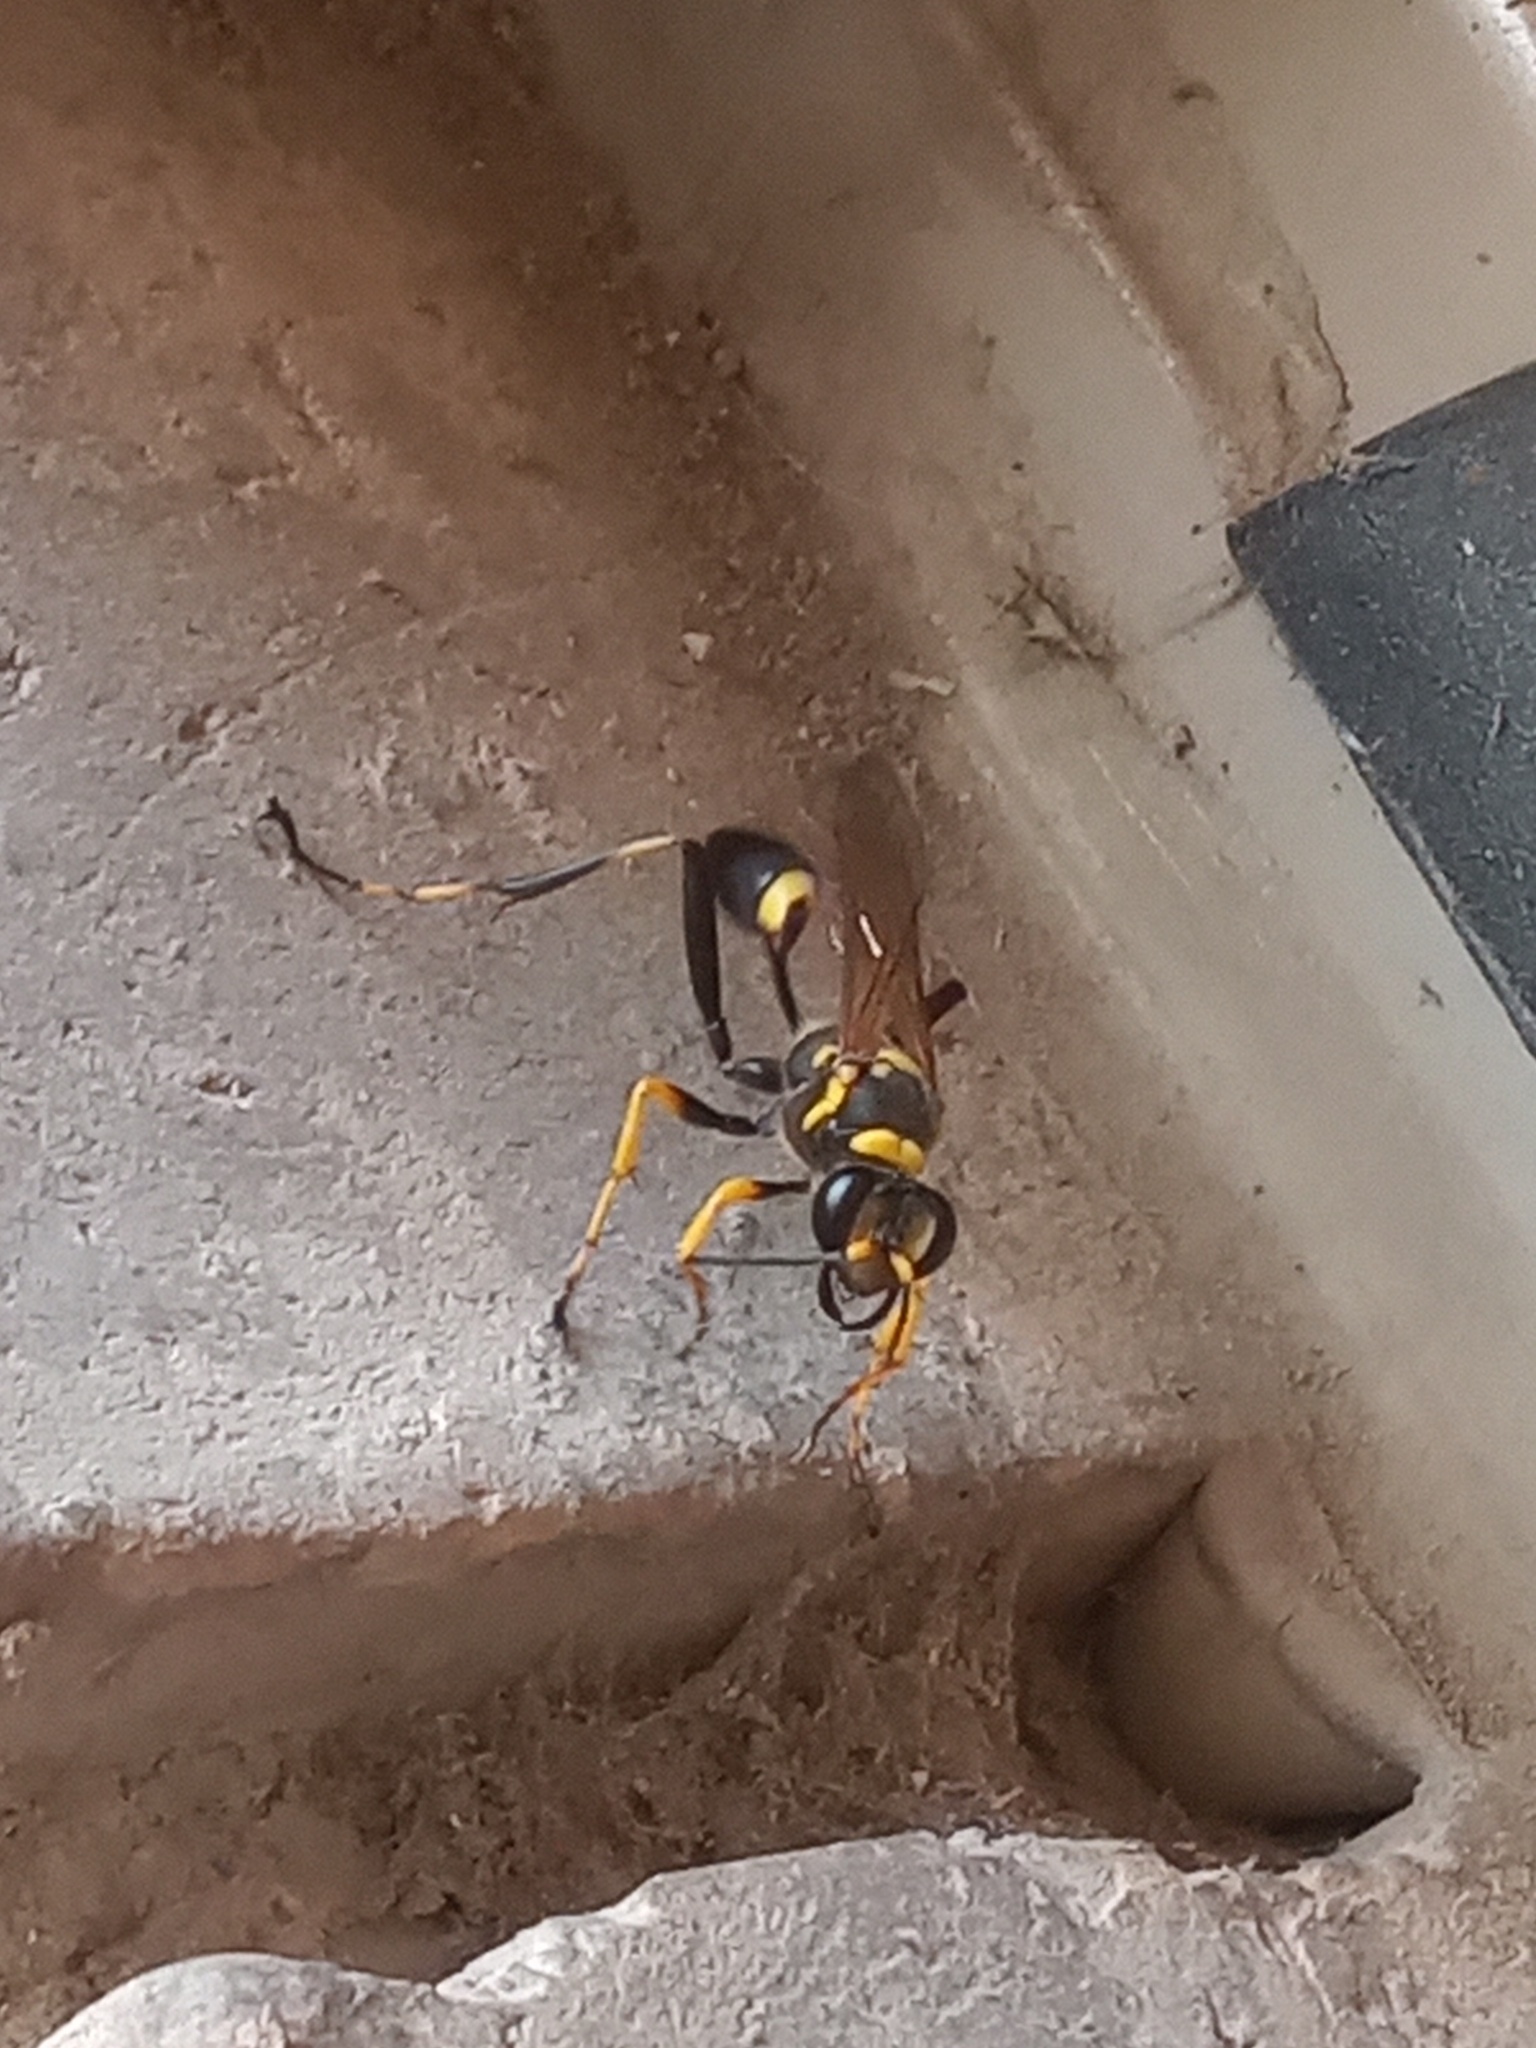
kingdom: Animalia
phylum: Arthropoda
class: Insecta
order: Hymenoptera
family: Sphecidae
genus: Sceliphron
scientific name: Sceliphron caementarium
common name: Mud dauber
